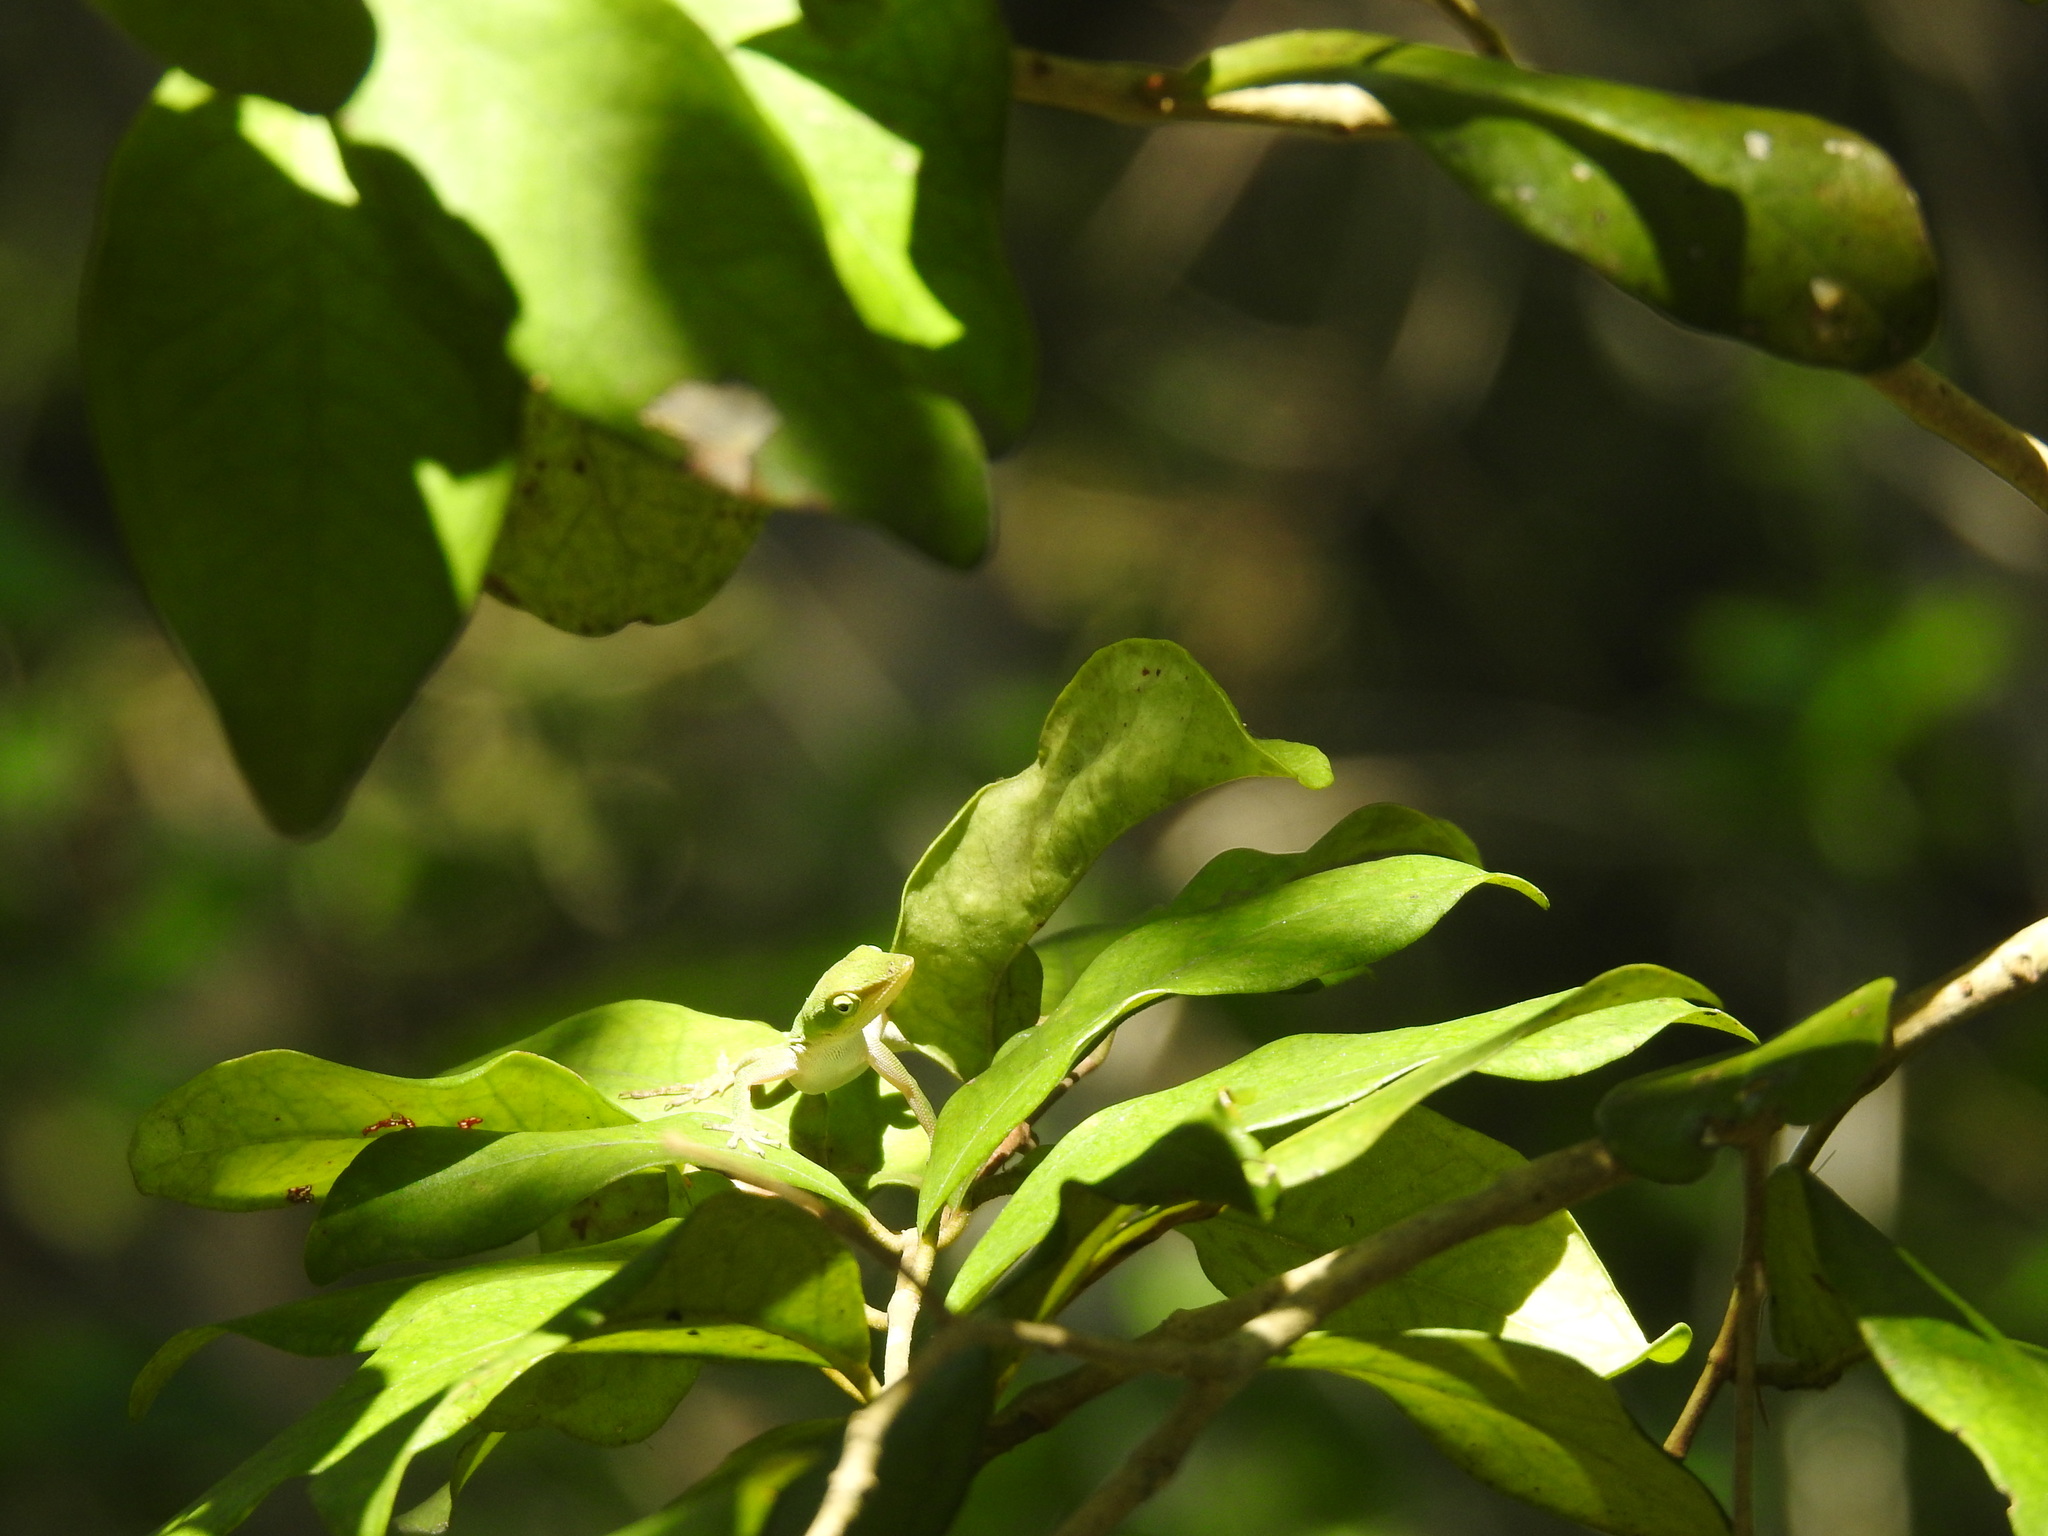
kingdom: Animalia
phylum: Chordata
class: Squamata
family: Dactyloidae
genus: Anolis
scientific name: Anolis carolinensis
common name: Green anole
